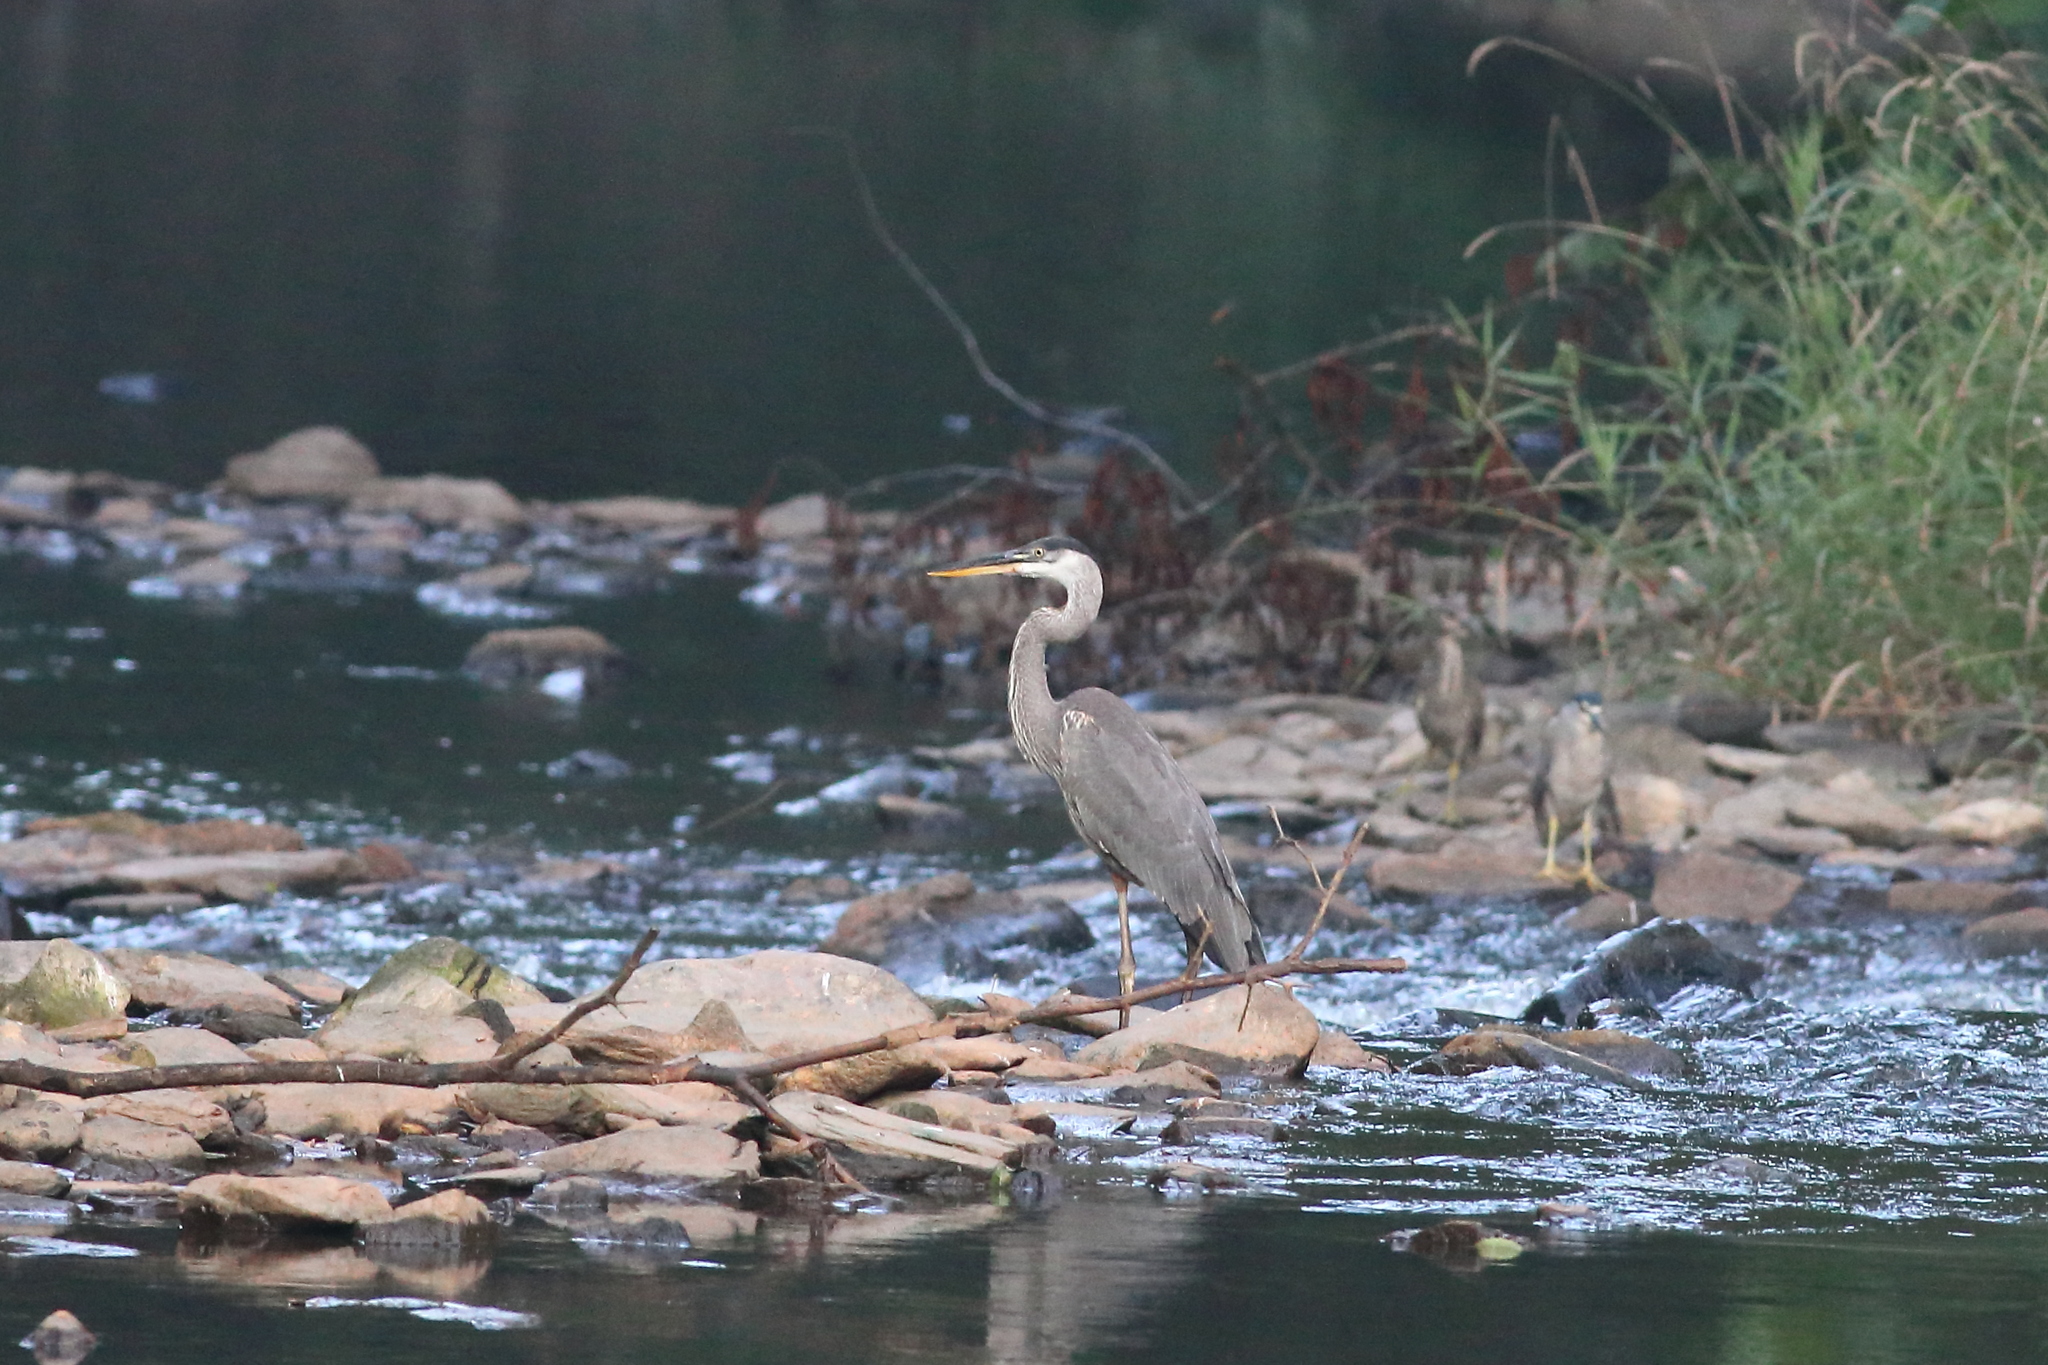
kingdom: Animalia
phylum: Chordata
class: Aves
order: Pelecaniformes
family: Ardeidae
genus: Nycticorax
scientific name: Nycticorax nycticorax
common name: Black-crowned night heron
